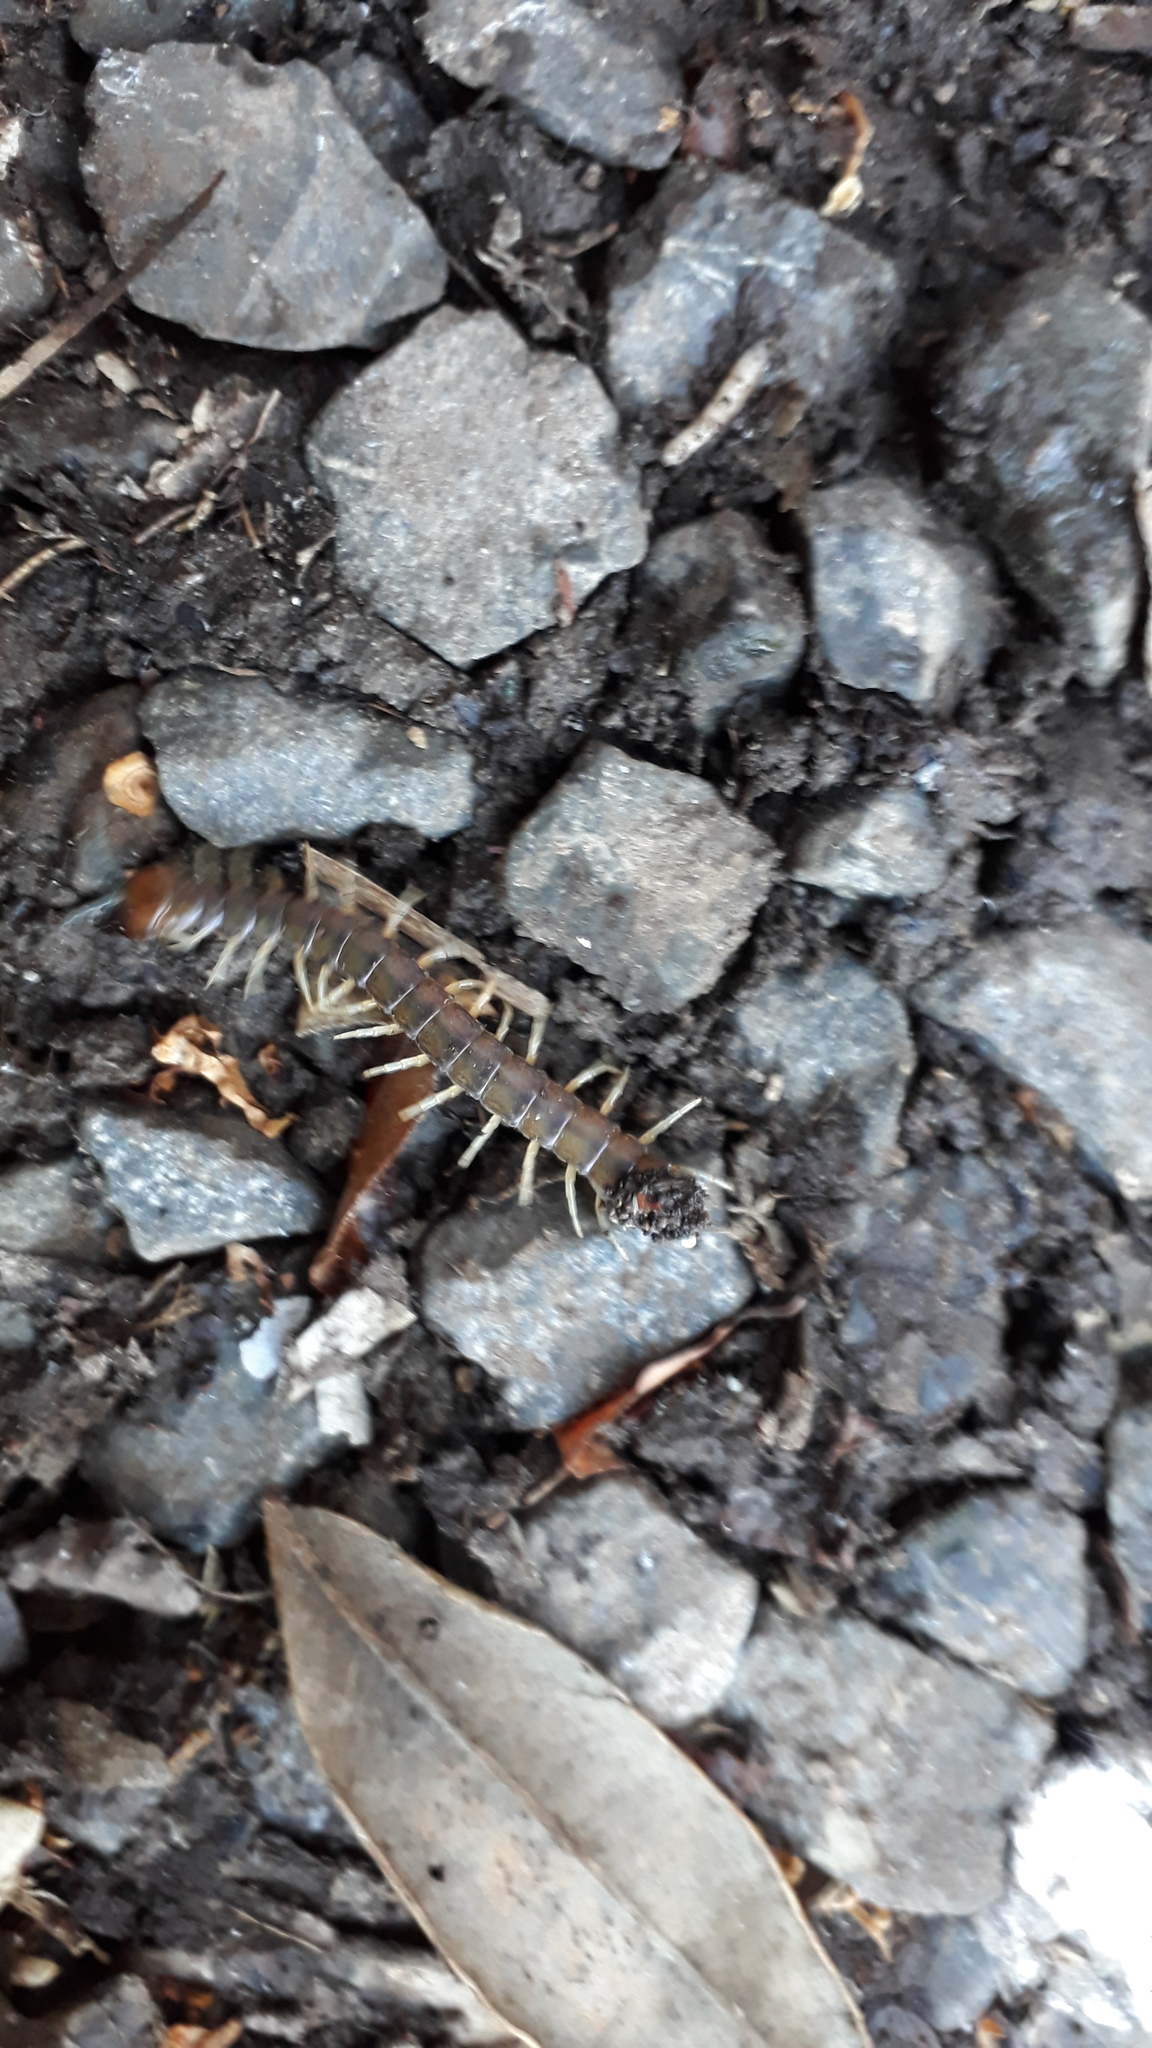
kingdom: Animalia
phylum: Arthropoda
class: Chilopoda
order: Scolopendromorpha
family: Scolopendridae
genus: Cormocephalus
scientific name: Cormocephalus rubriceps
